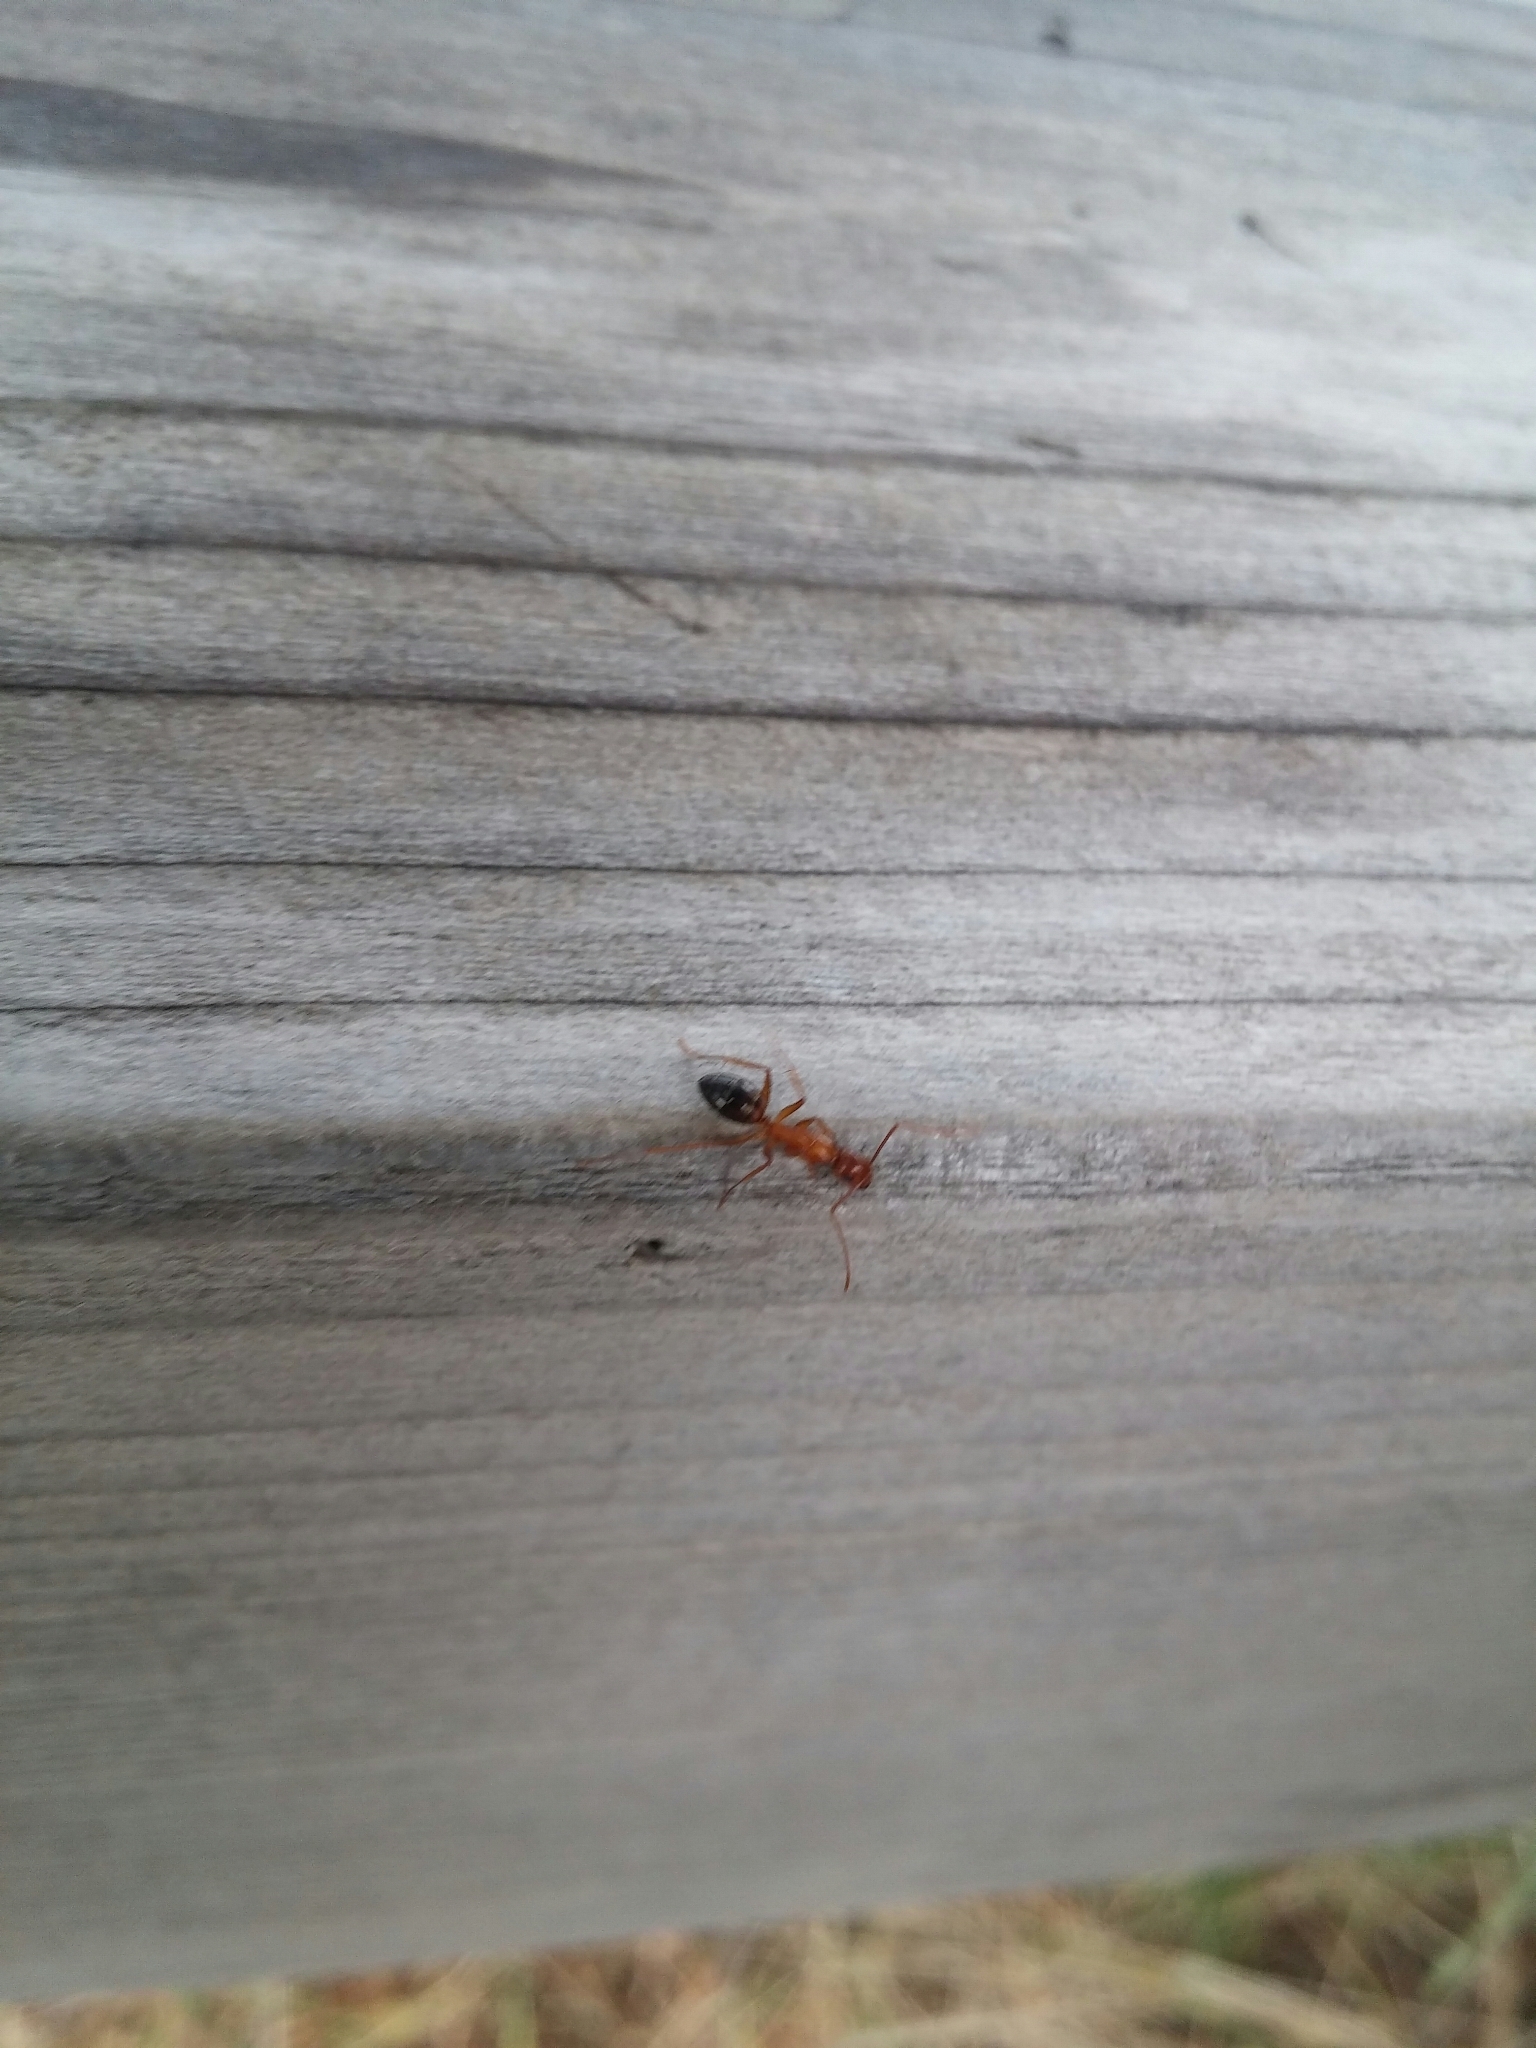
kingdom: Animalia
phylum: Arthropoda
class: Insecta
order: Hymenoptera
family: Formicidae
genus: Camponotus
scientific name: Camponotus nylanderi
